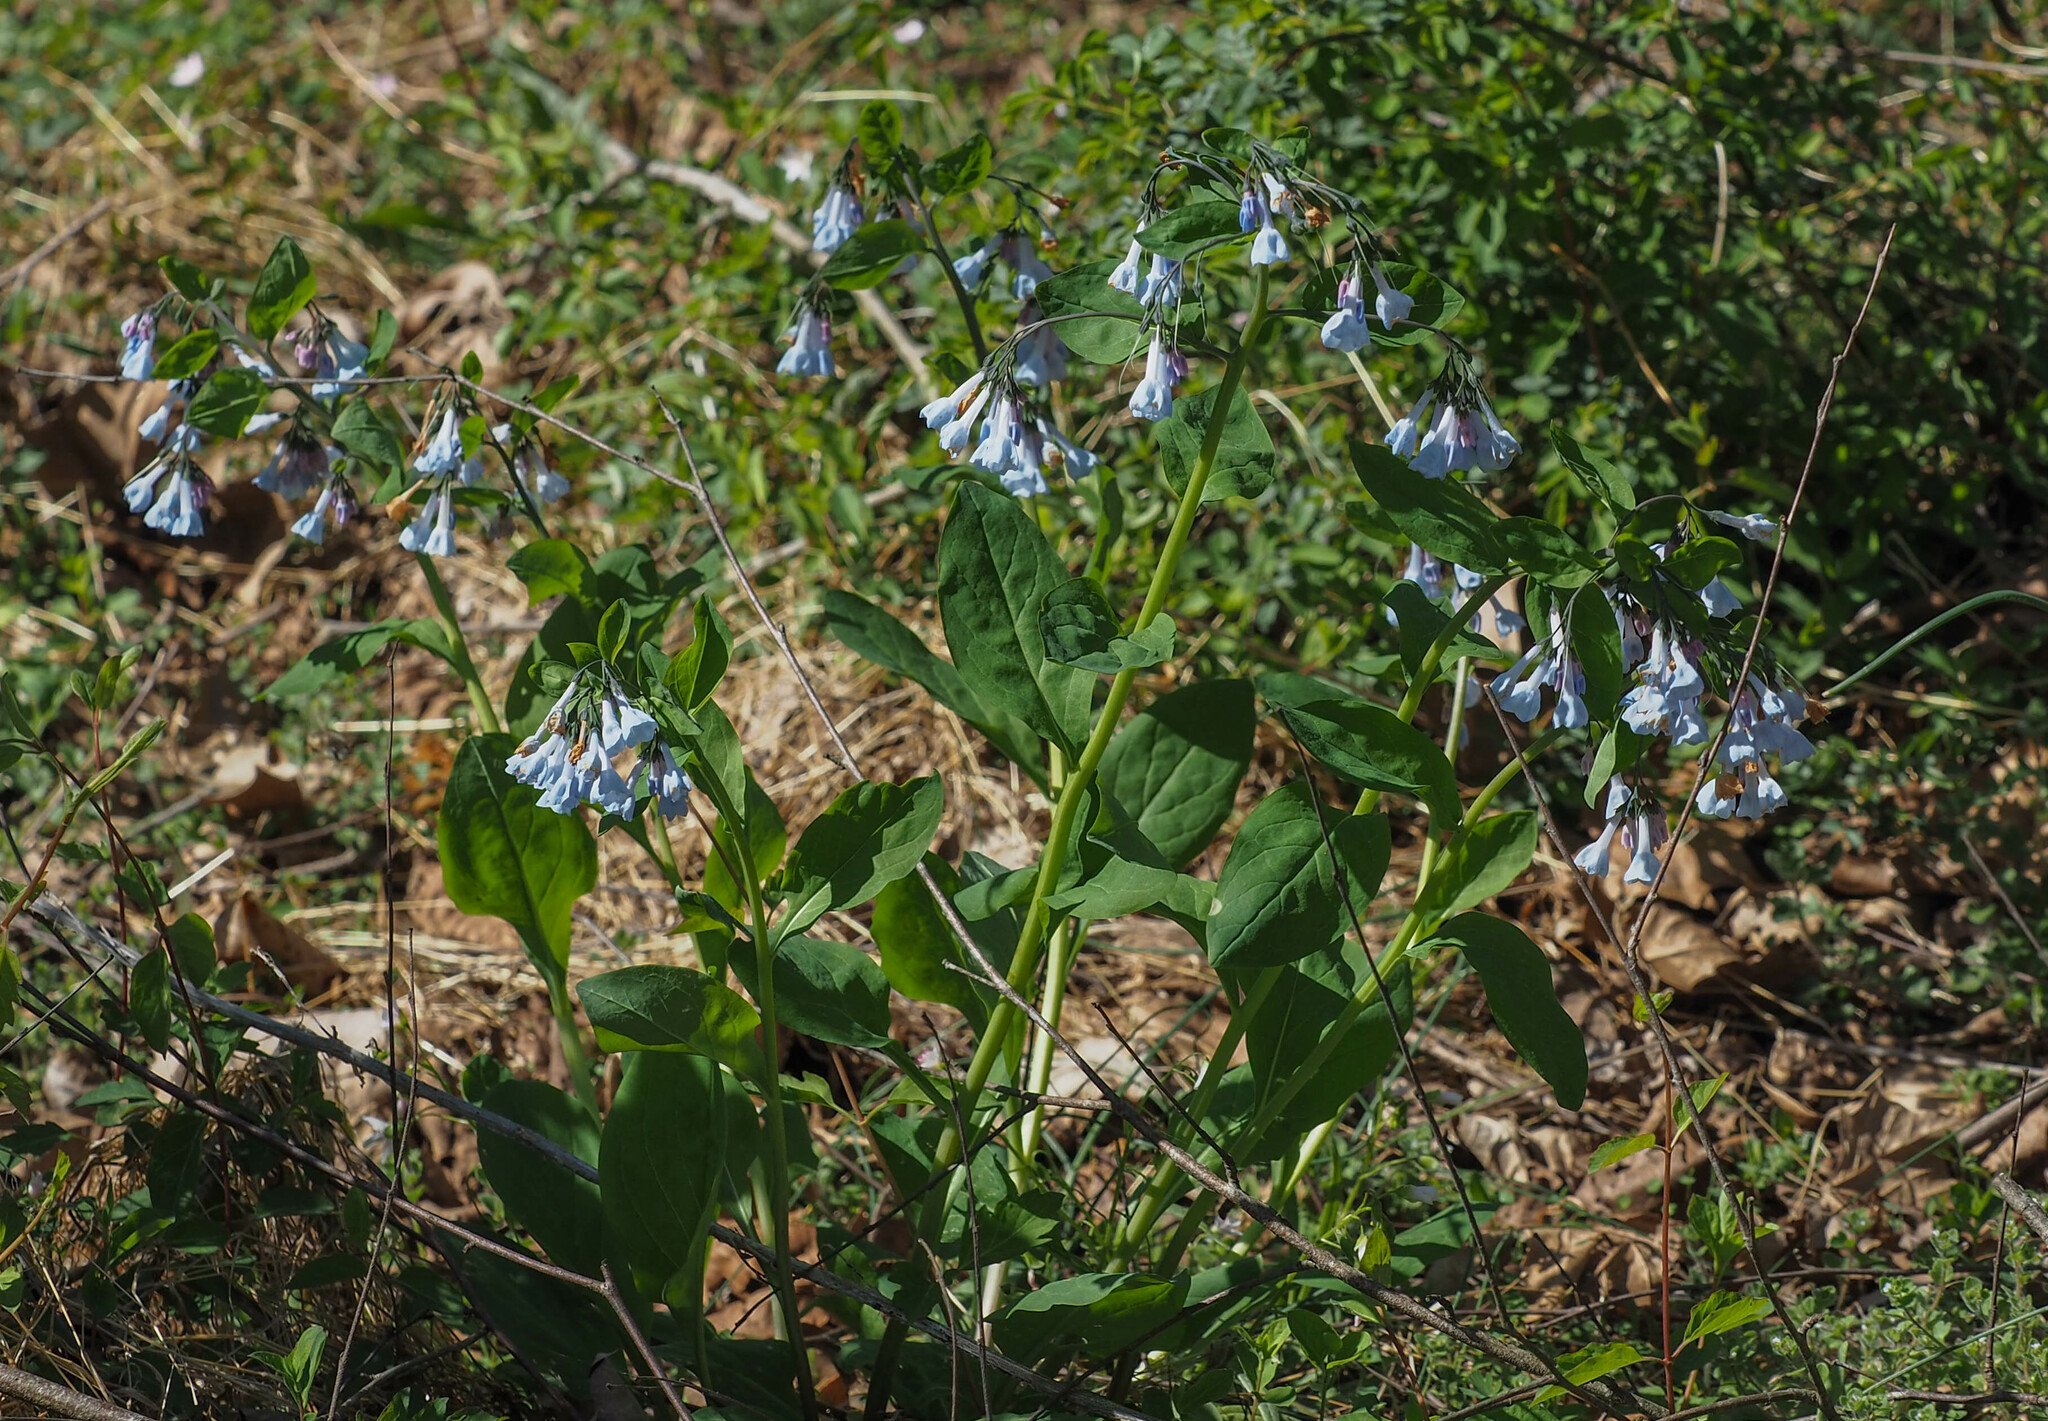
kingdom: Plantae
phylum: Tracheophyta
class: Magnoliopsida
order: Boraginales
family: Boraginaceae
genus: Mertensia
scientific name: Mertensia virginica
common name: Virginia bluebells
